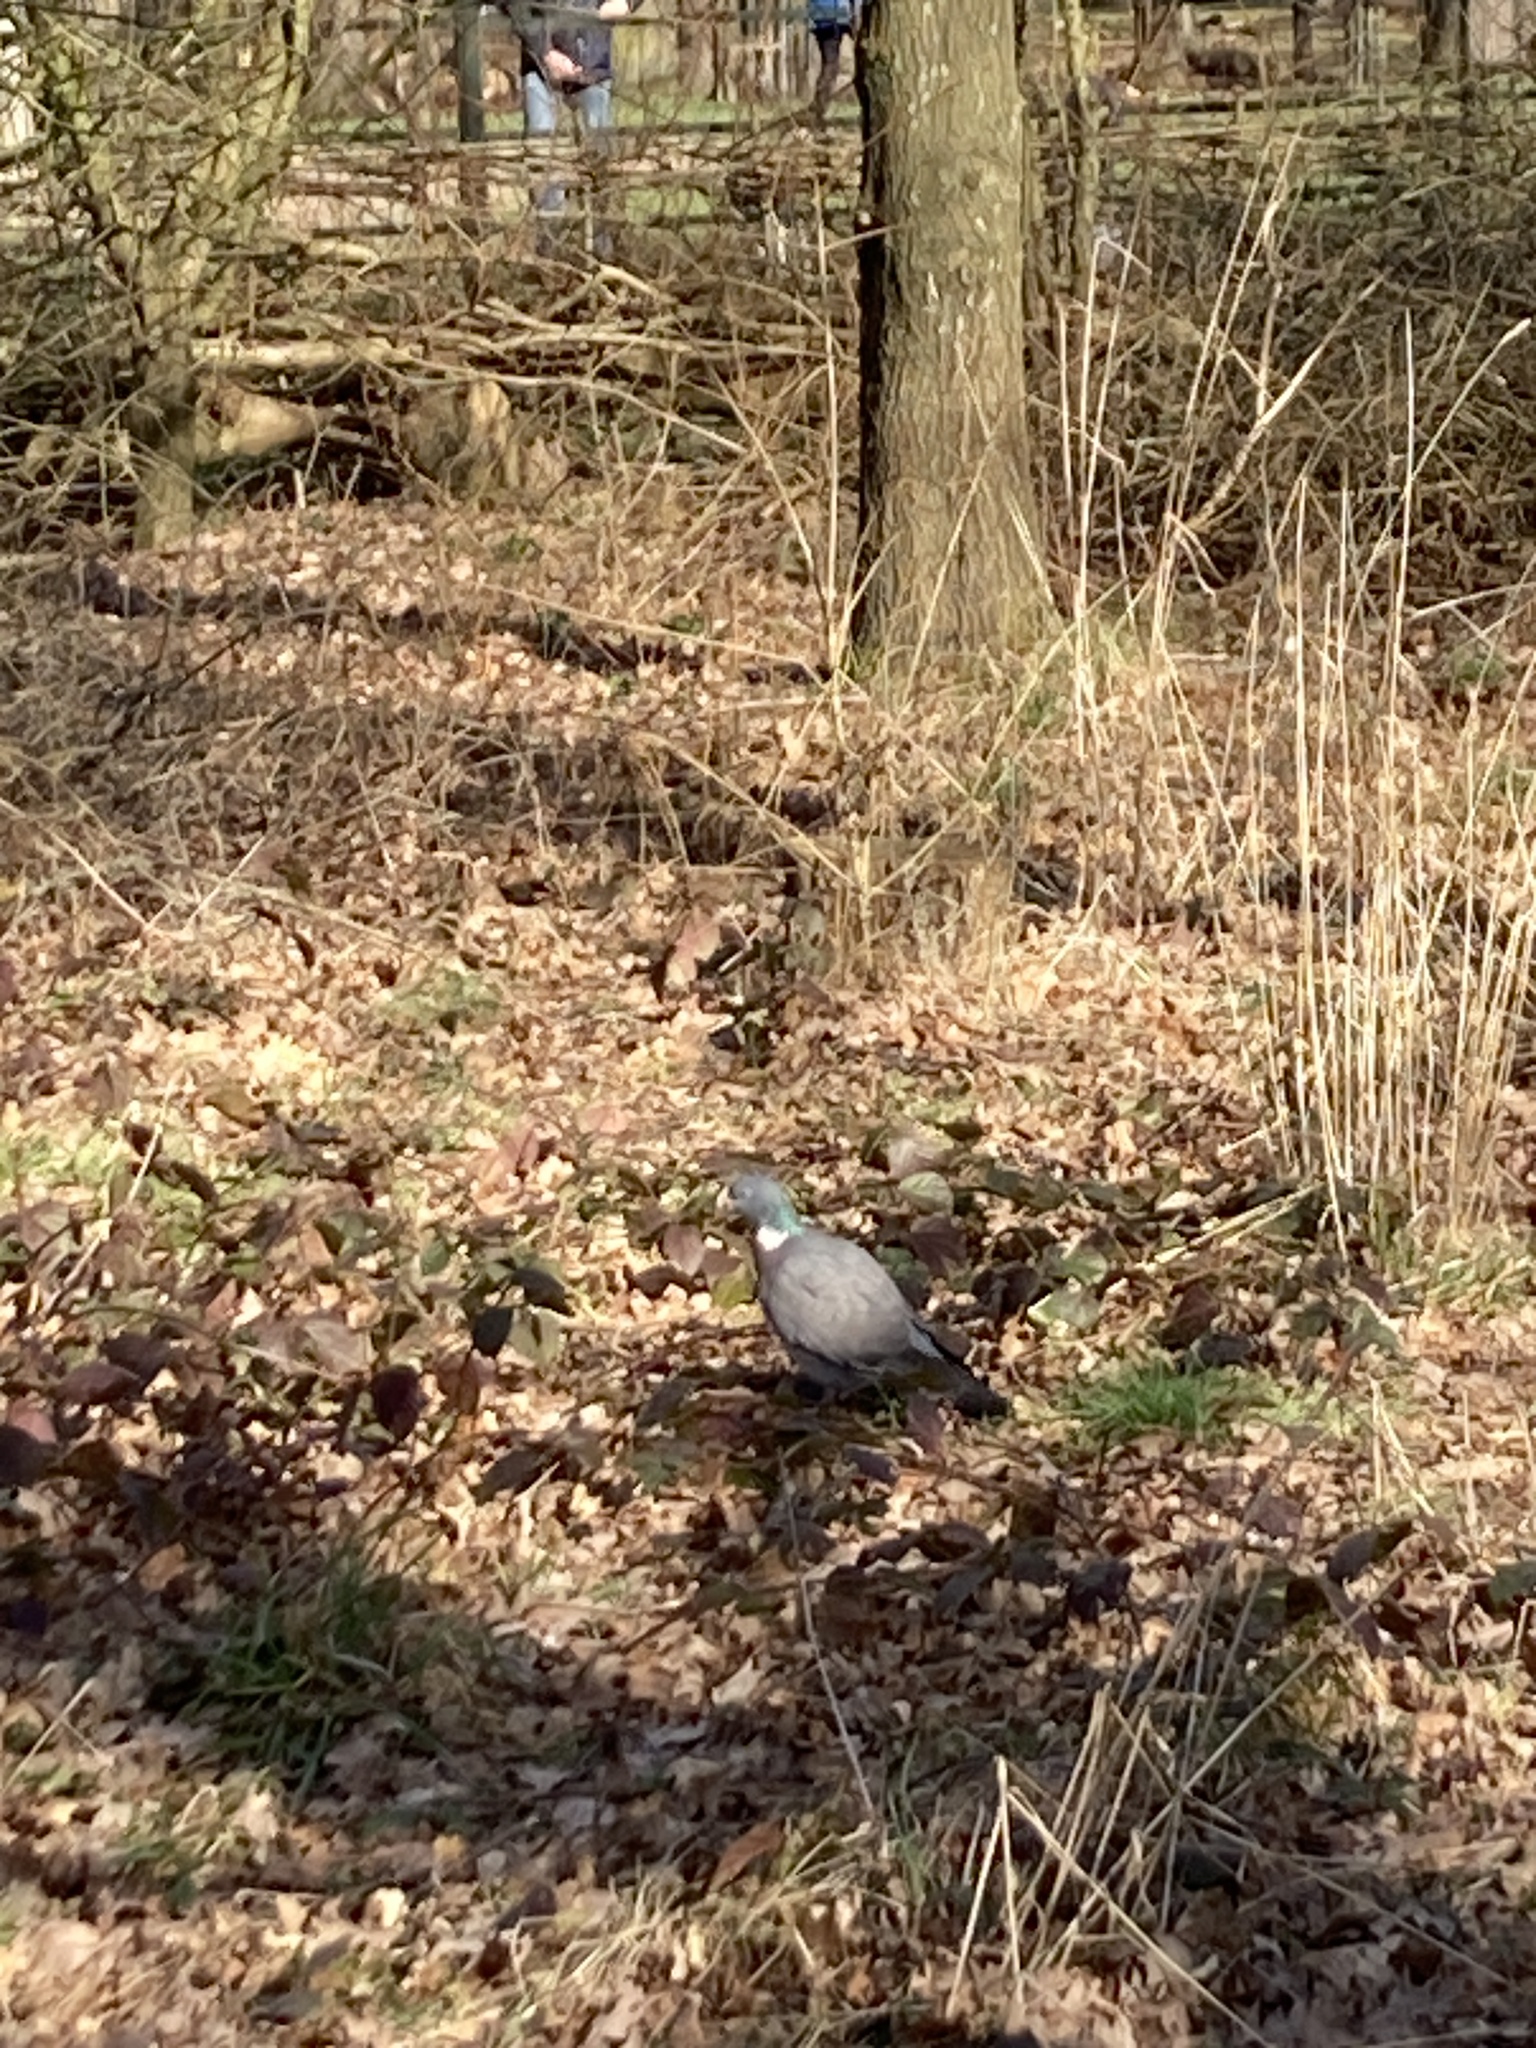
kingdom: Animalia
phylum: Chordata
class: Aves
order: Columbiformes
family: Columbidae
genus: Columba
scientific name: Columba palumbus
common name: Common wood pigeon
